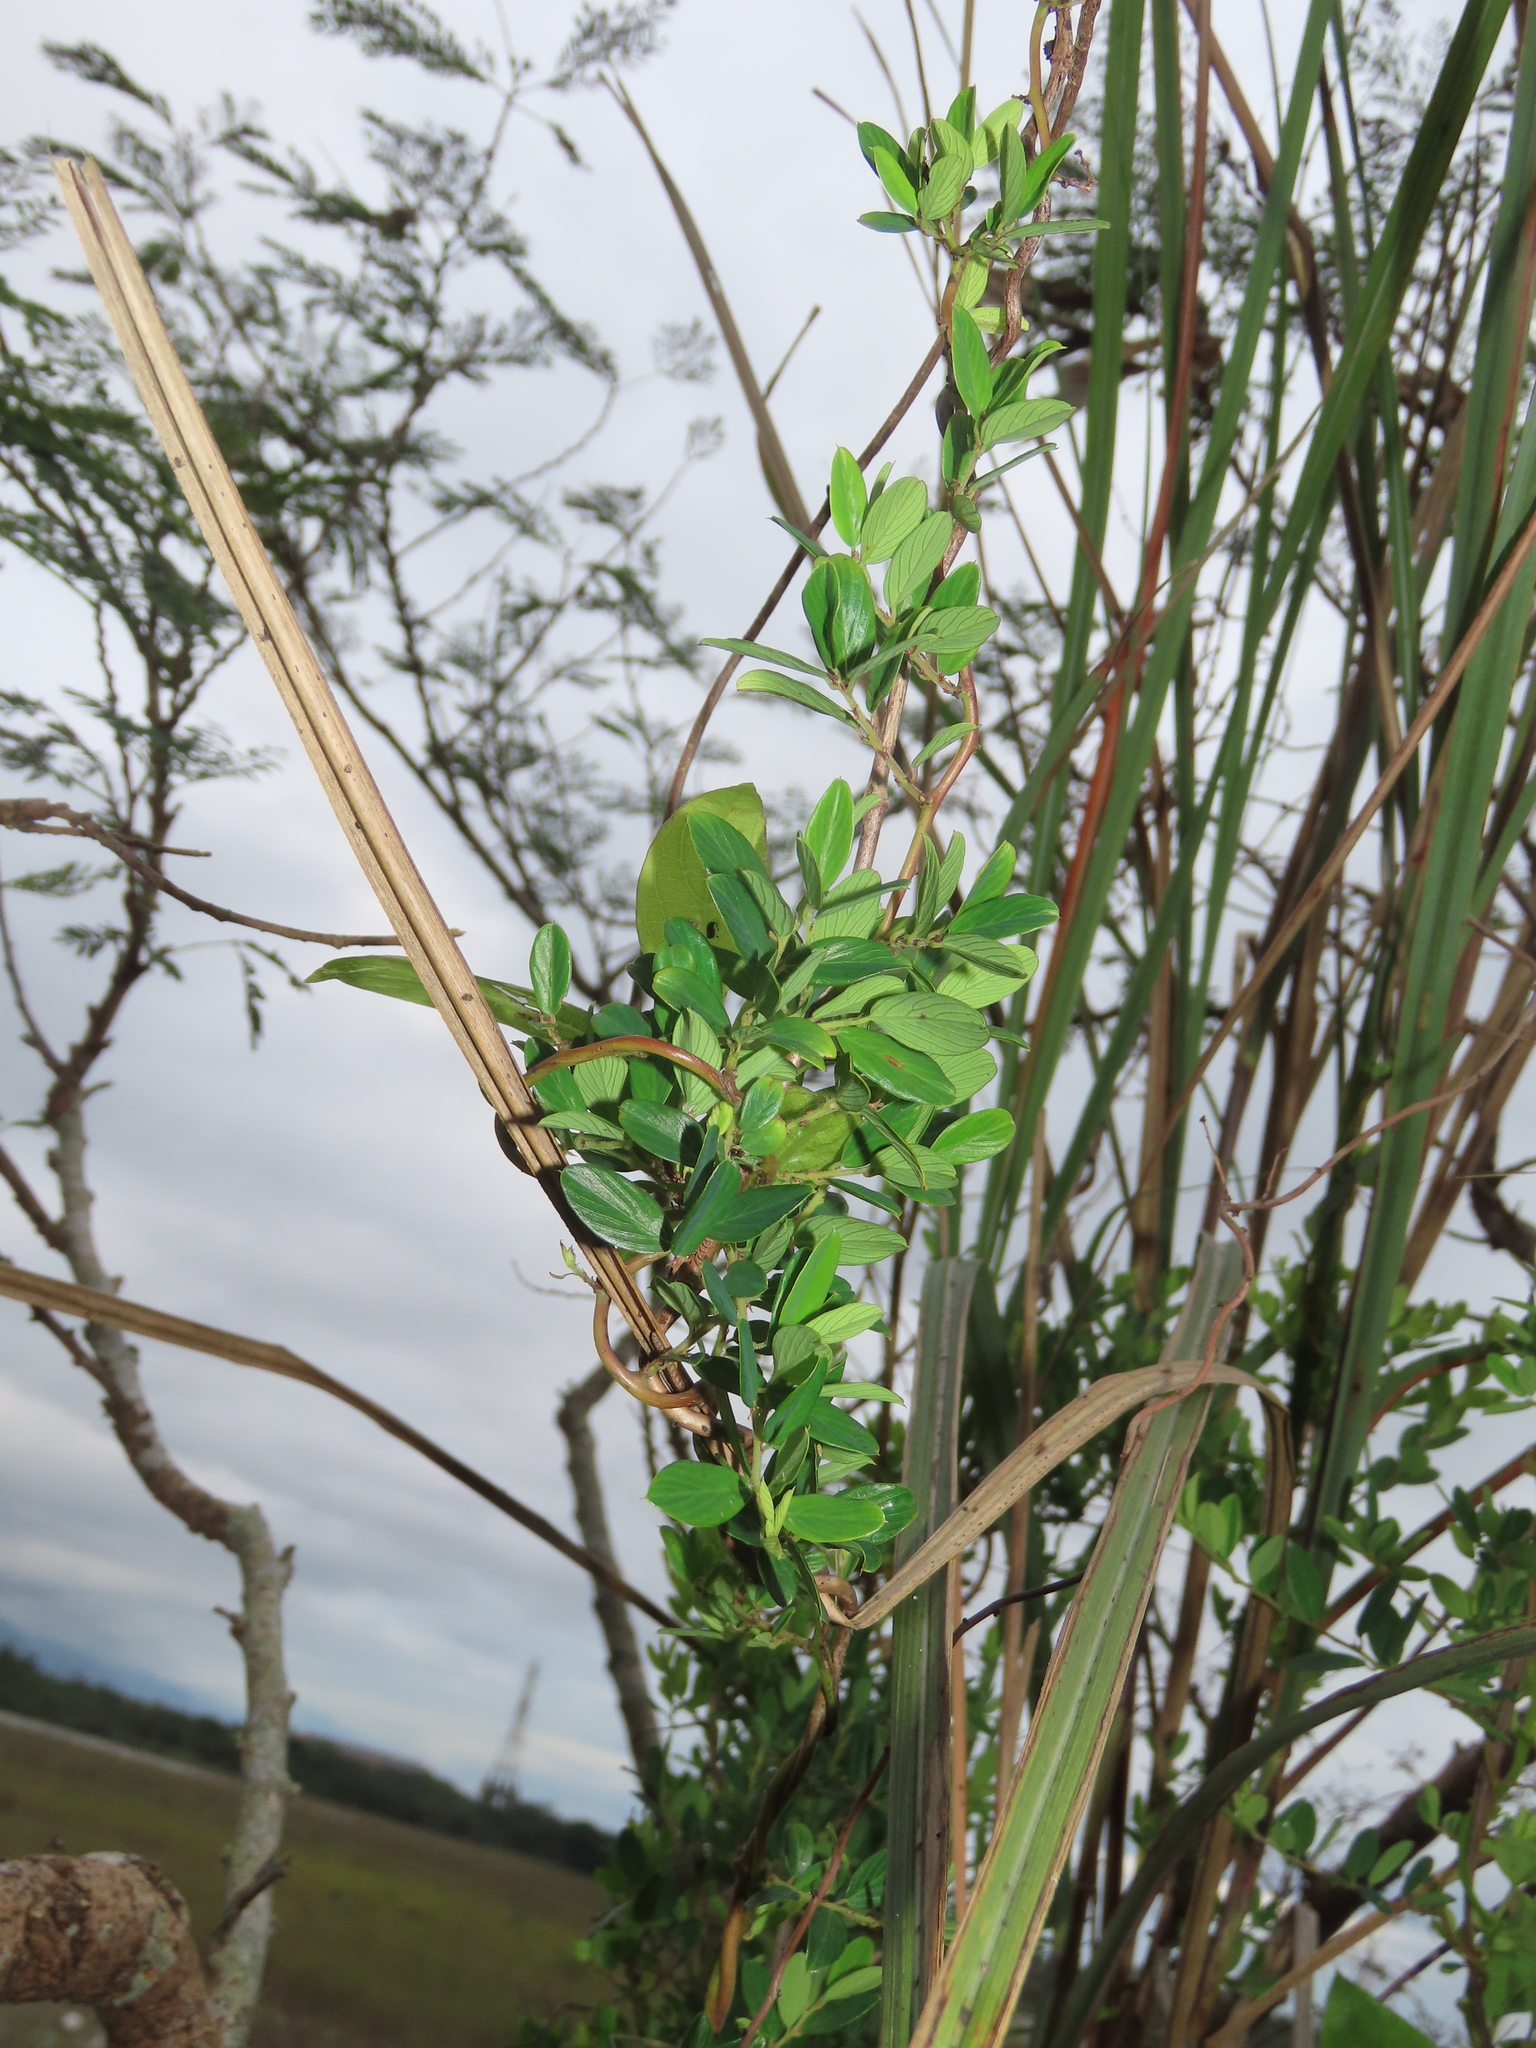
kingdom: Plantae
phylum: Tracheophyta
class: Magnoliopsida
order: Rosales
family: Rhamnaceae
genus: Berchemia
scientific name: Berchemia lineata
